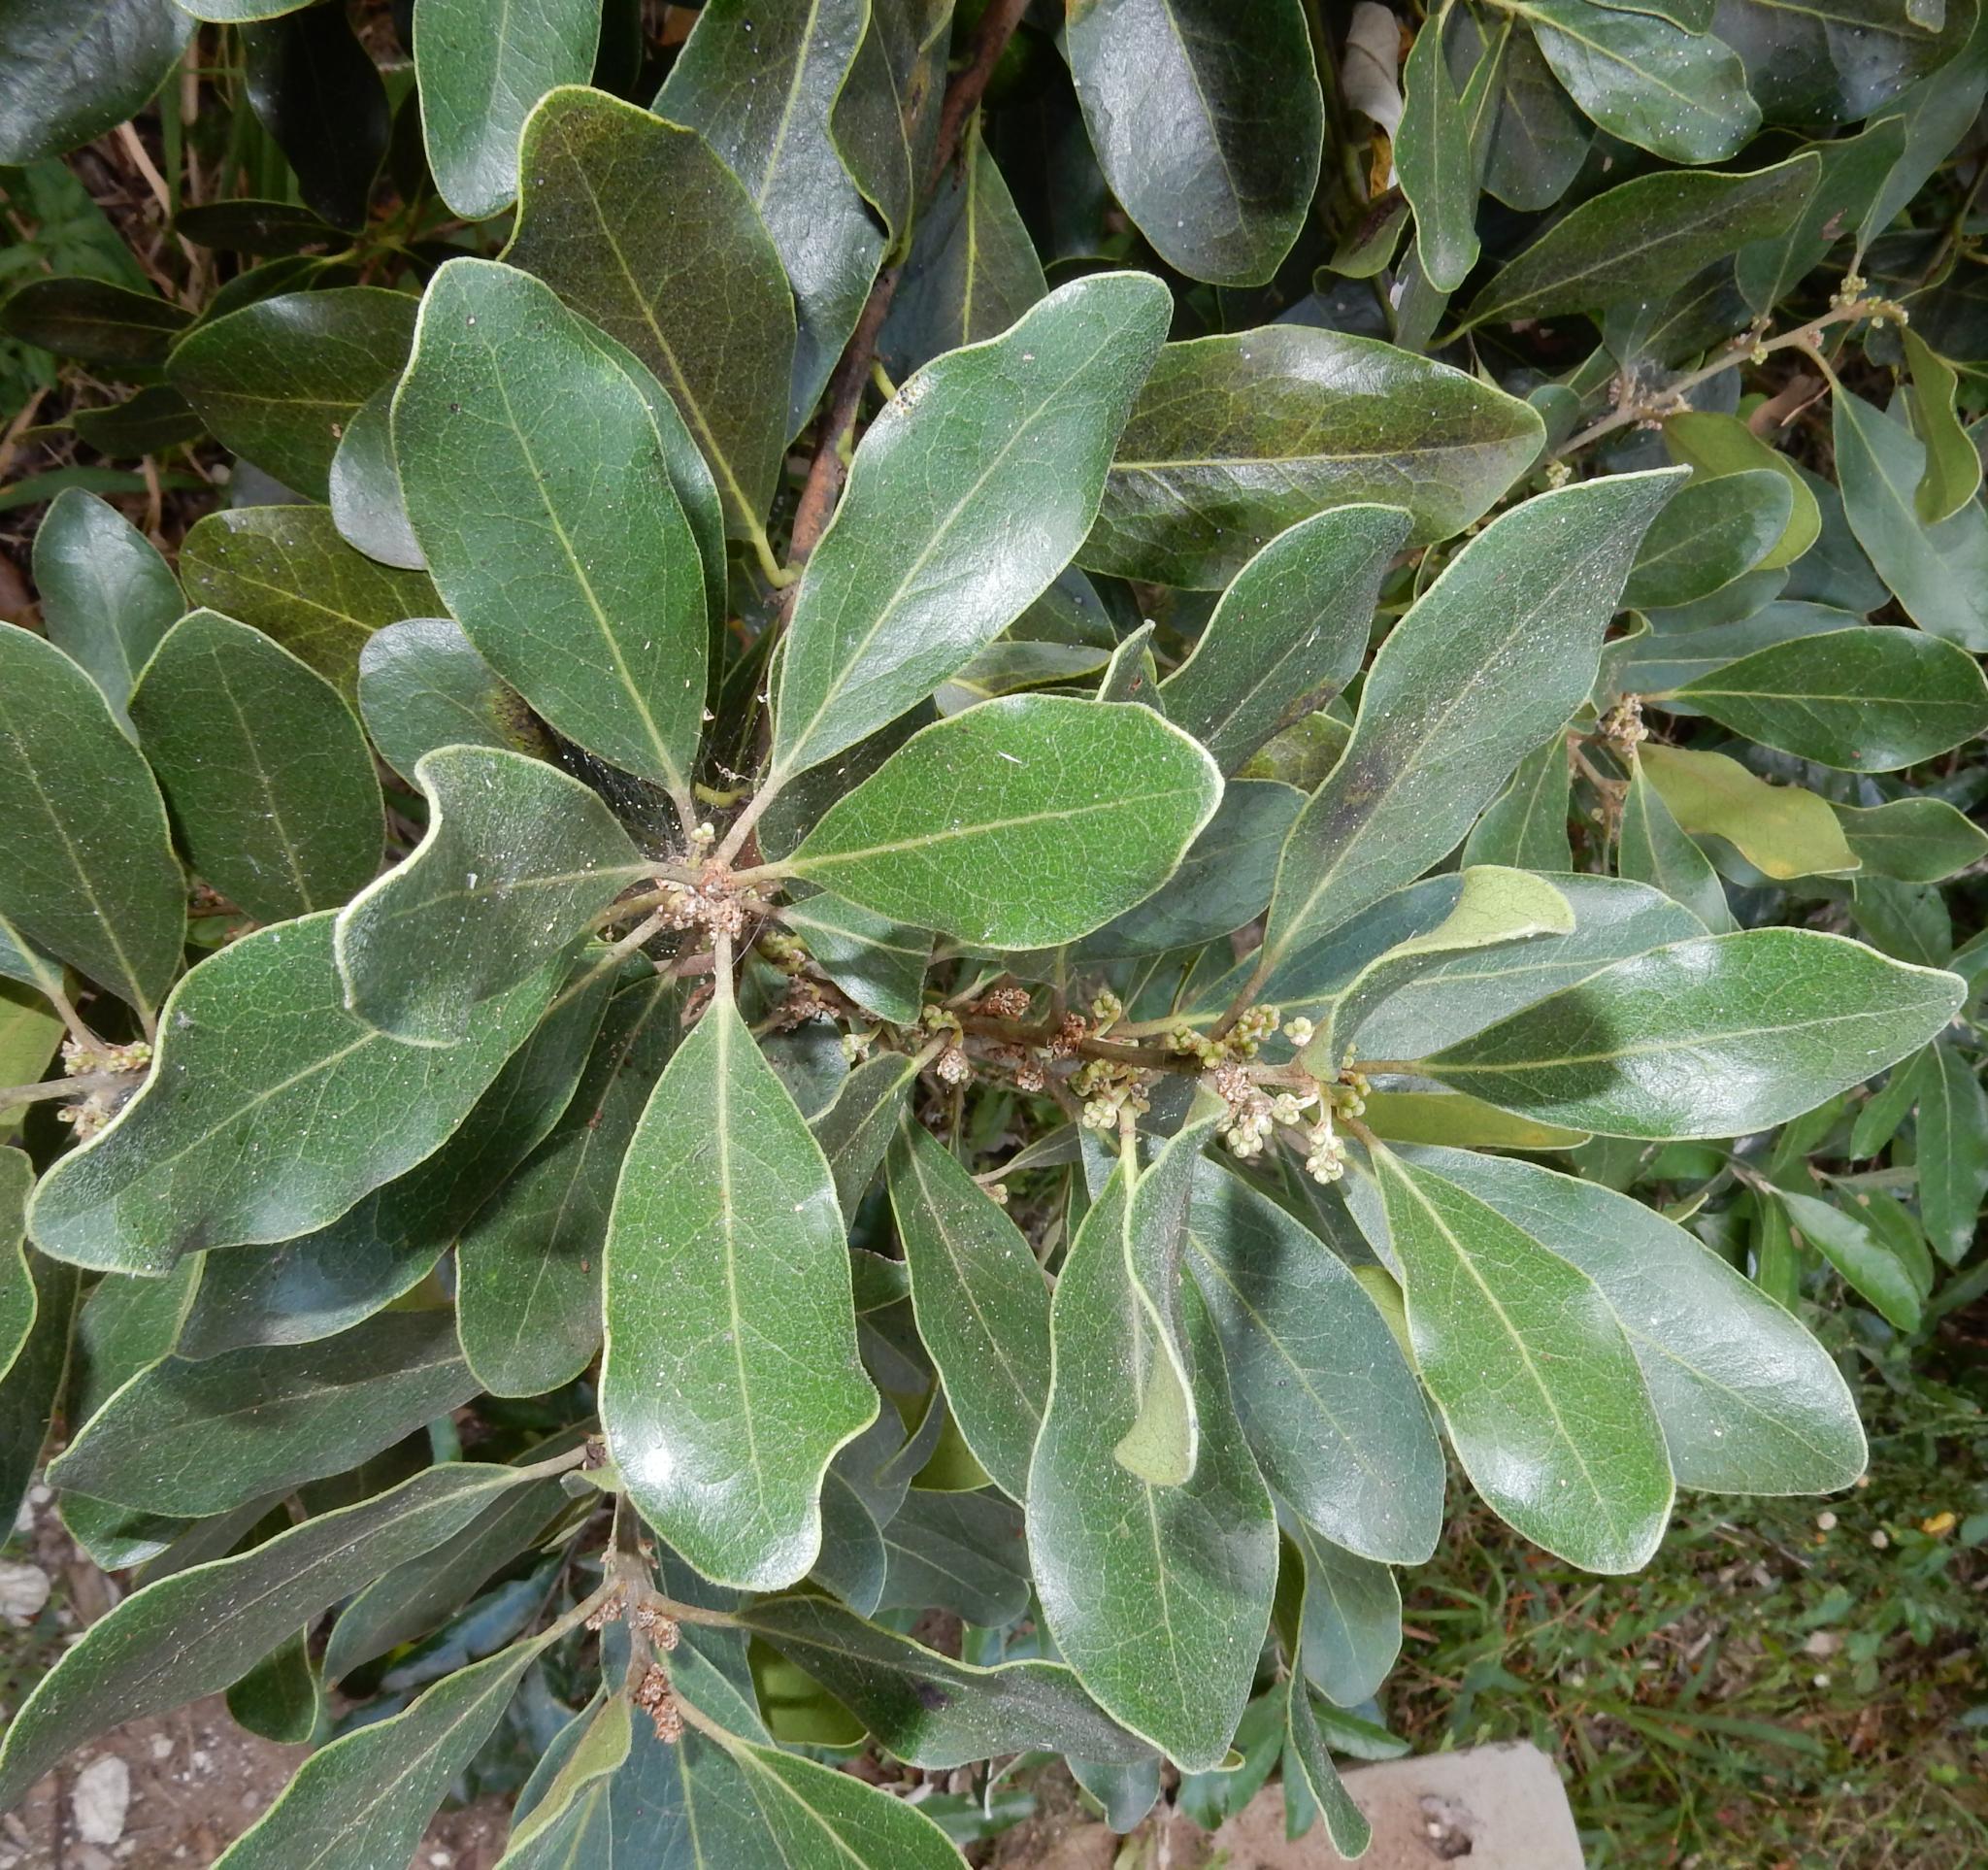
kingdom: Plantae
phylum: Tracheophyta
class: Magnoliopsida
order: Ericales
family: Ebenaceae
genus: Euclea
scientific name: Euclea natalensis
